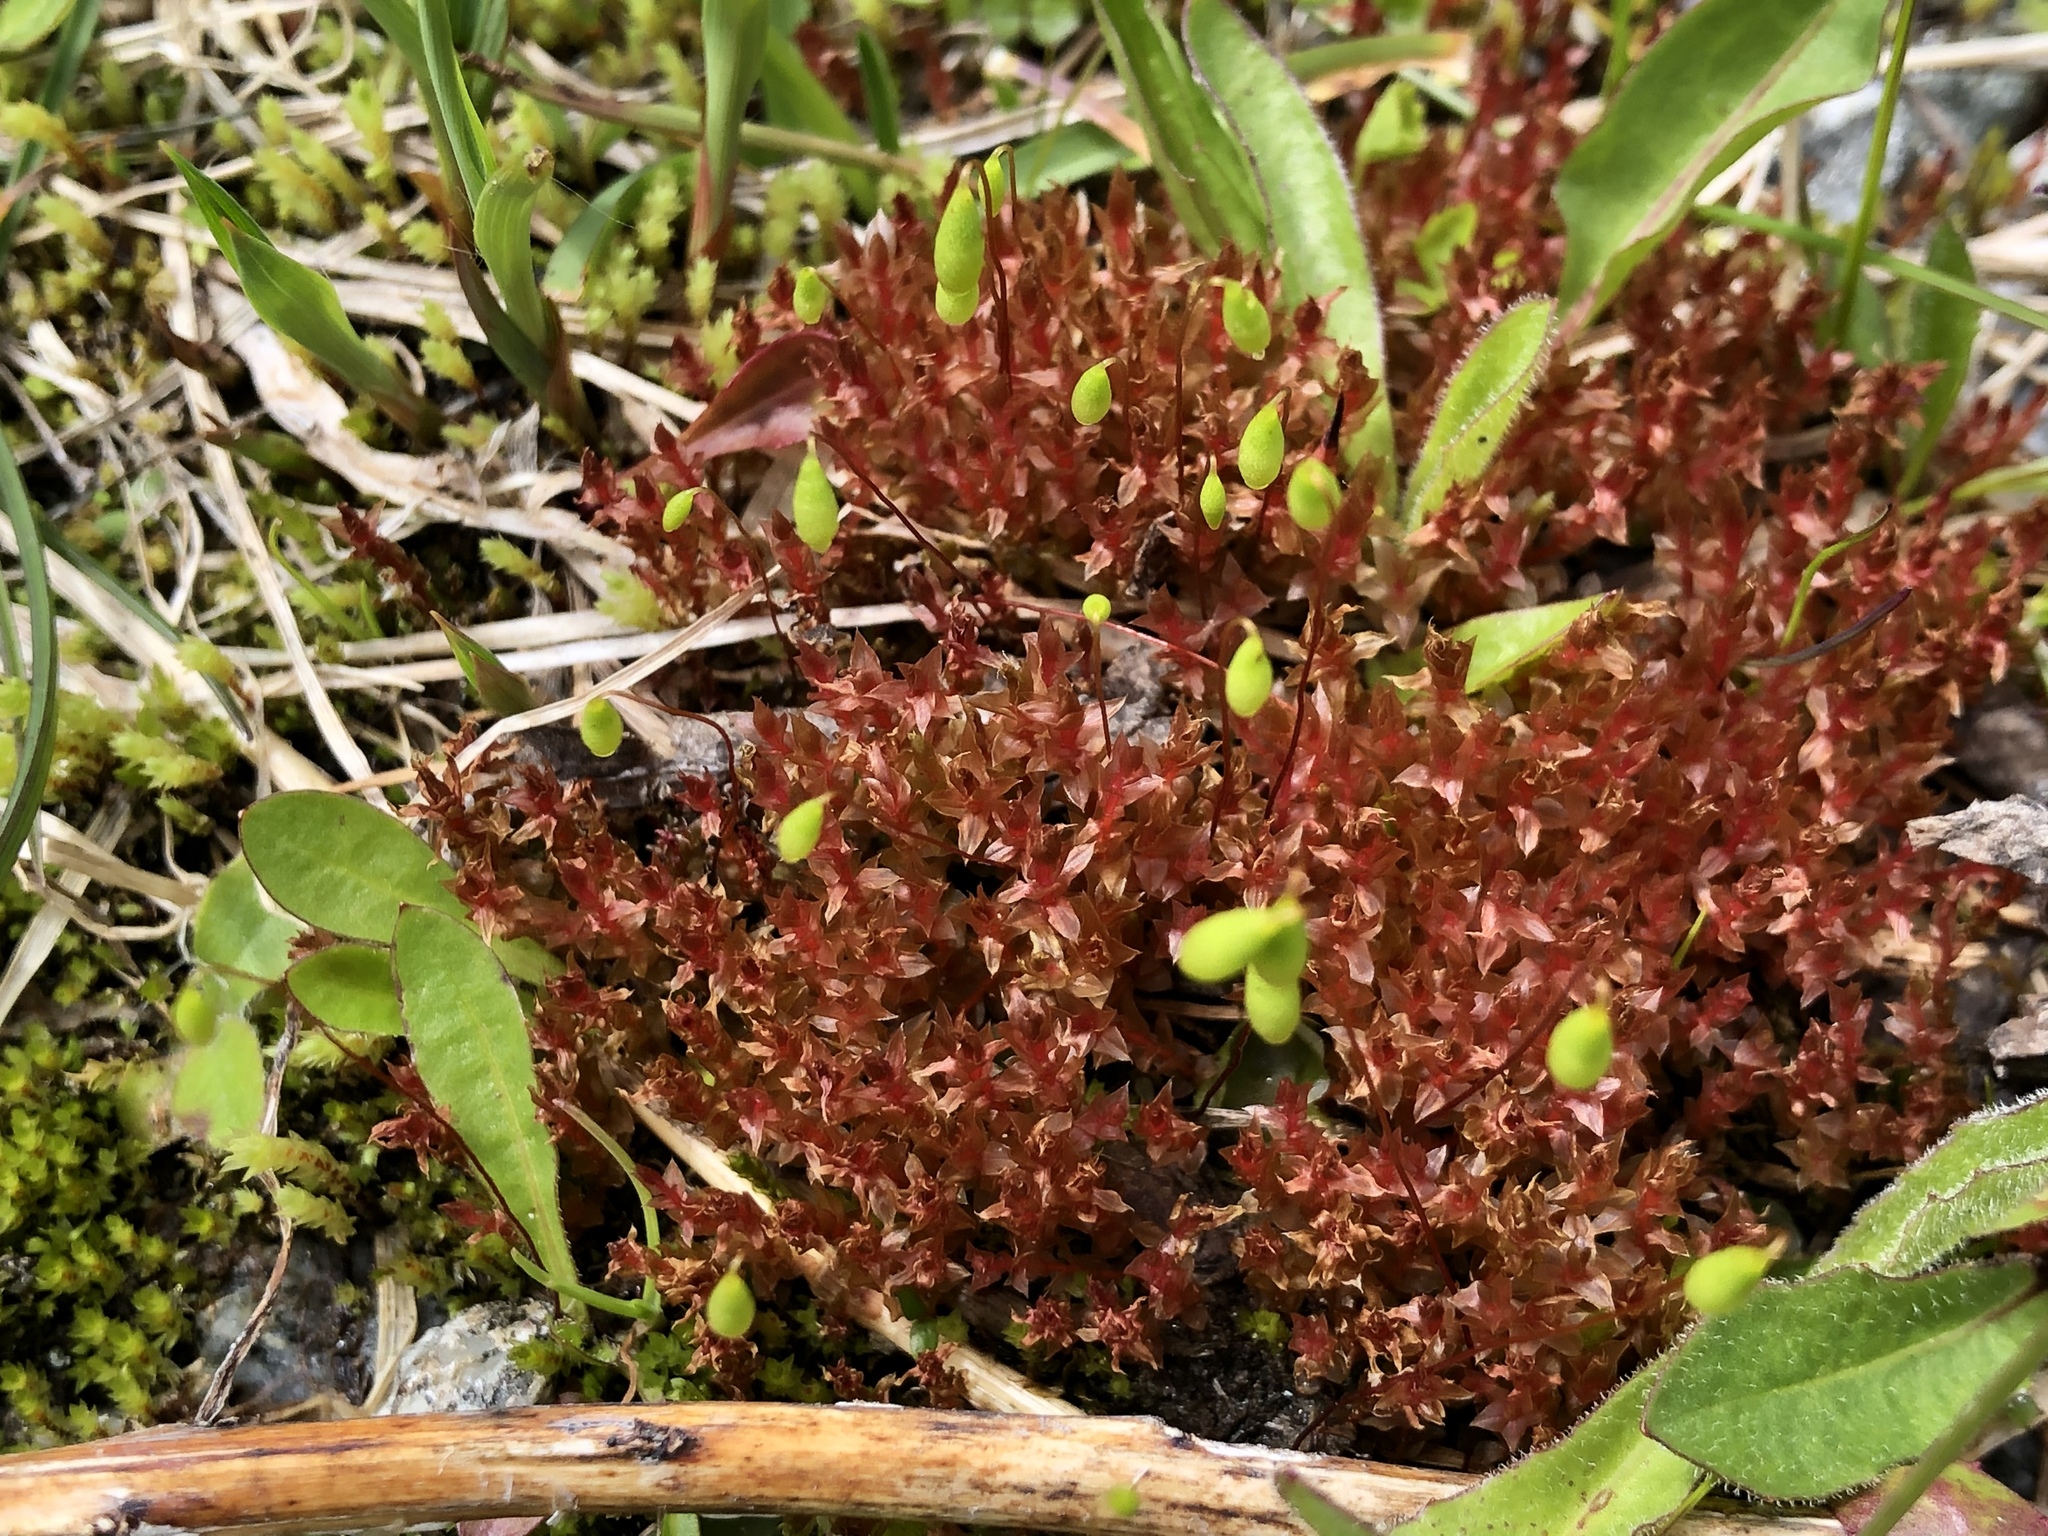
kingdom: Plantae
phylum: Bryophyta
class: Bryopsida
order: Bryales
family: Bryaceae
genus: Ptychostomum
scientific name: Ptychostomum pallens
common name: Pale thread-moss
